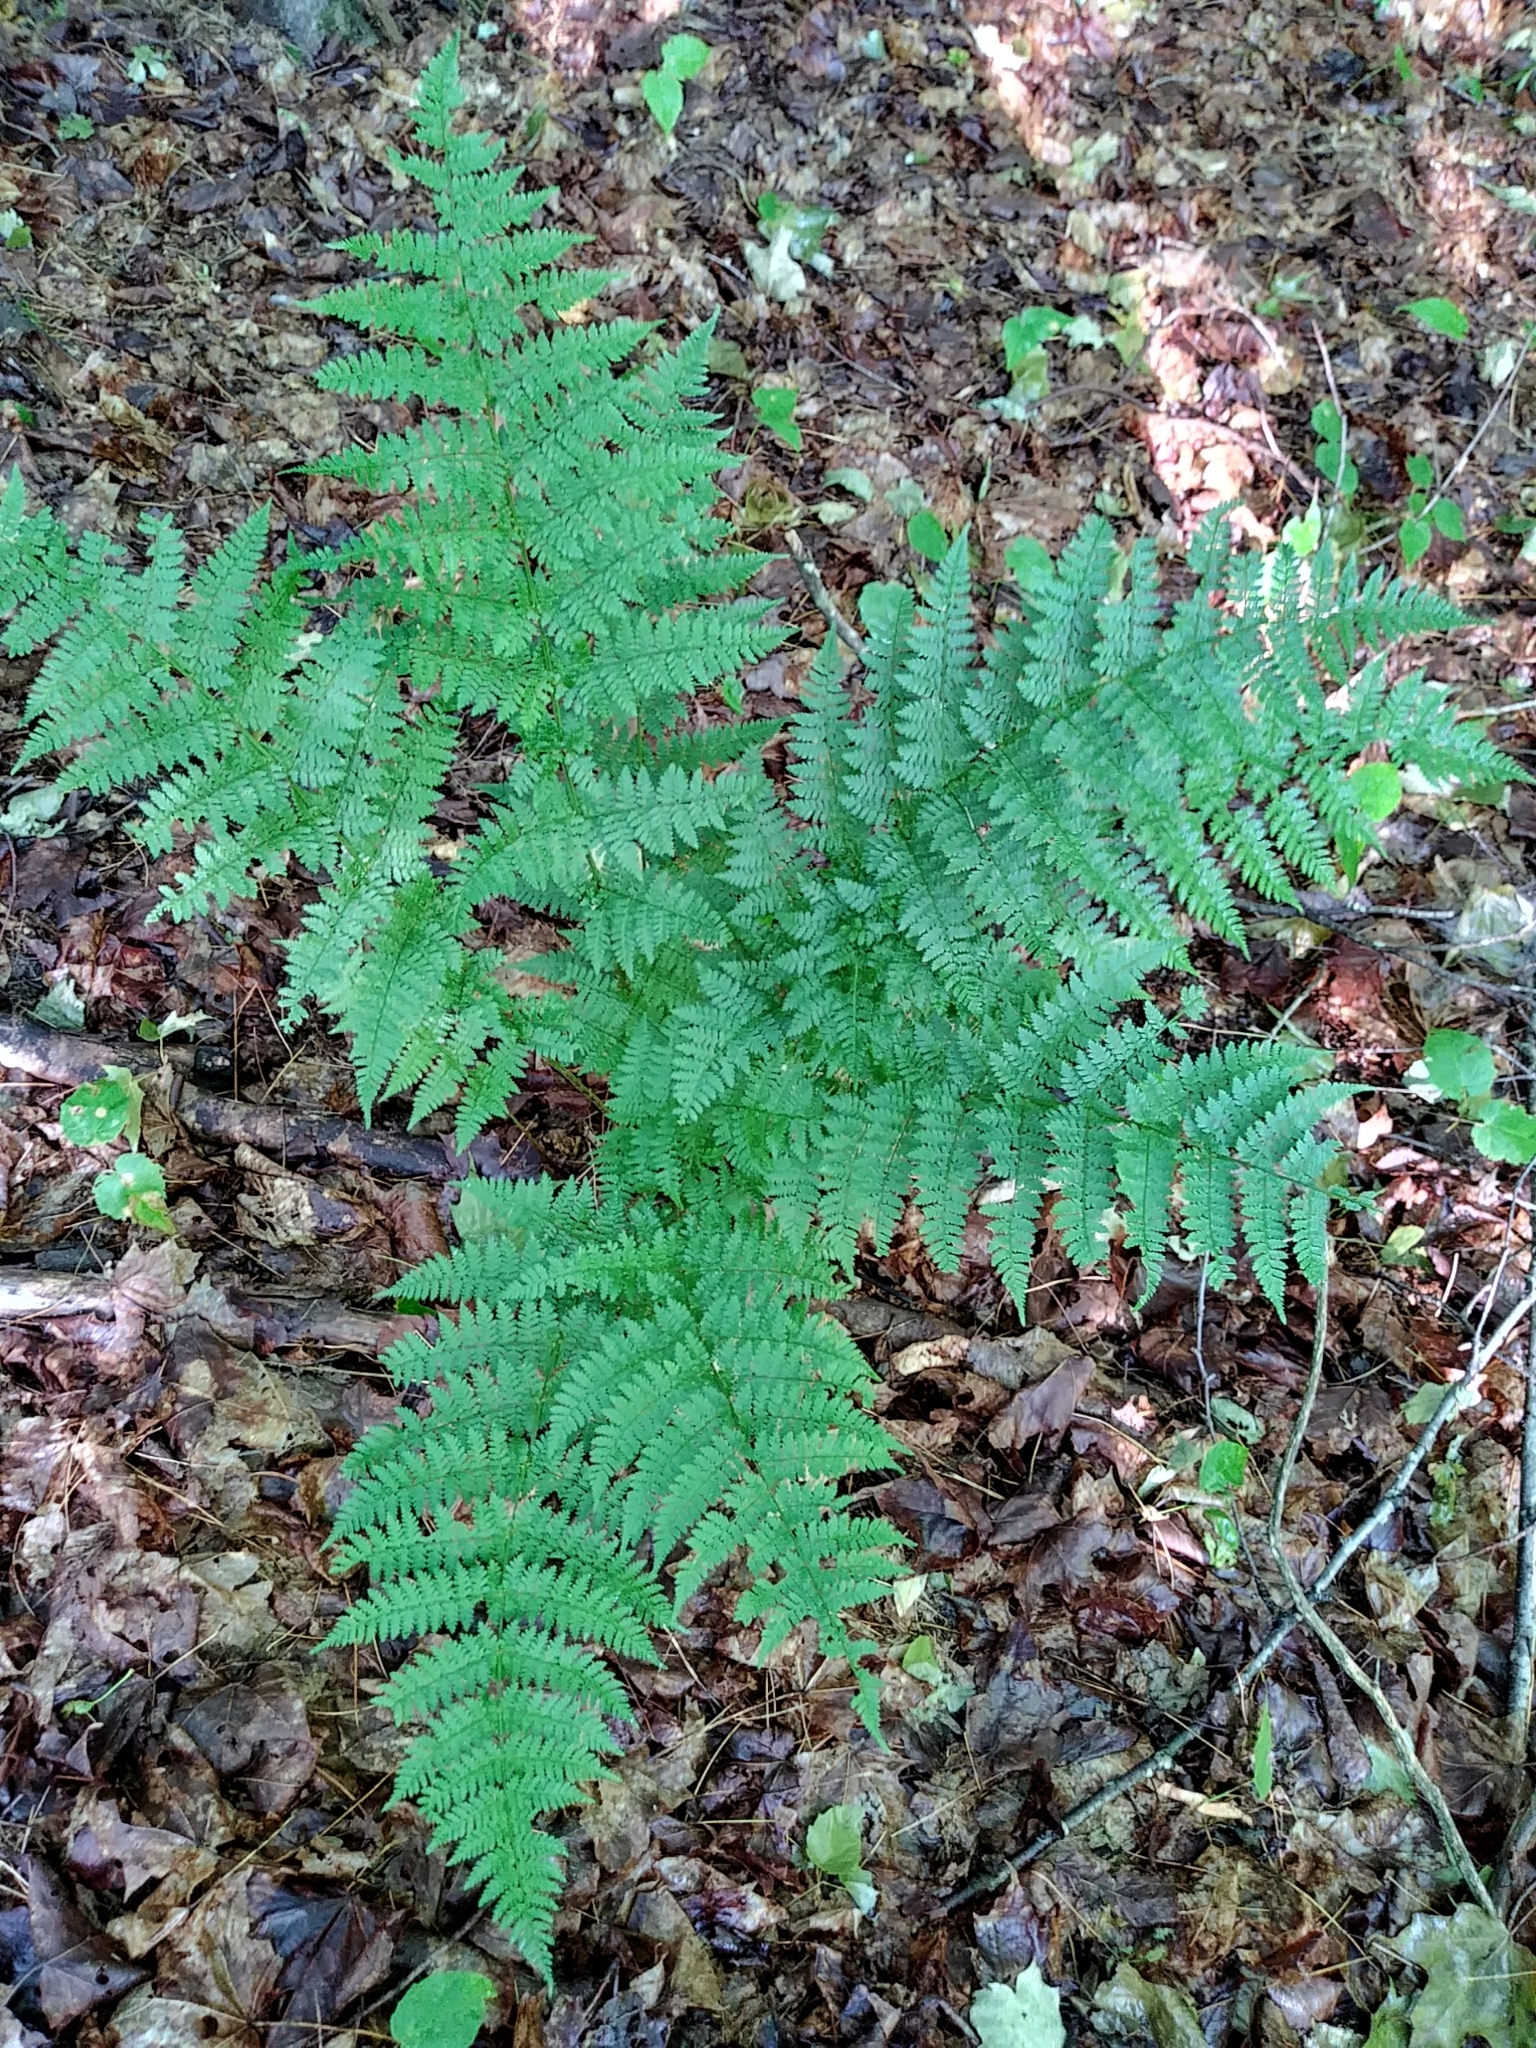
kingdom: Plantae
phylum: Tracheophyta
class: Polypodiopsida
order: Polypodiales
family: Dryopteridaceae
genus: Dryopteris
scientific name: Dryopteris intermedia
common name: Evergreen wood fern
